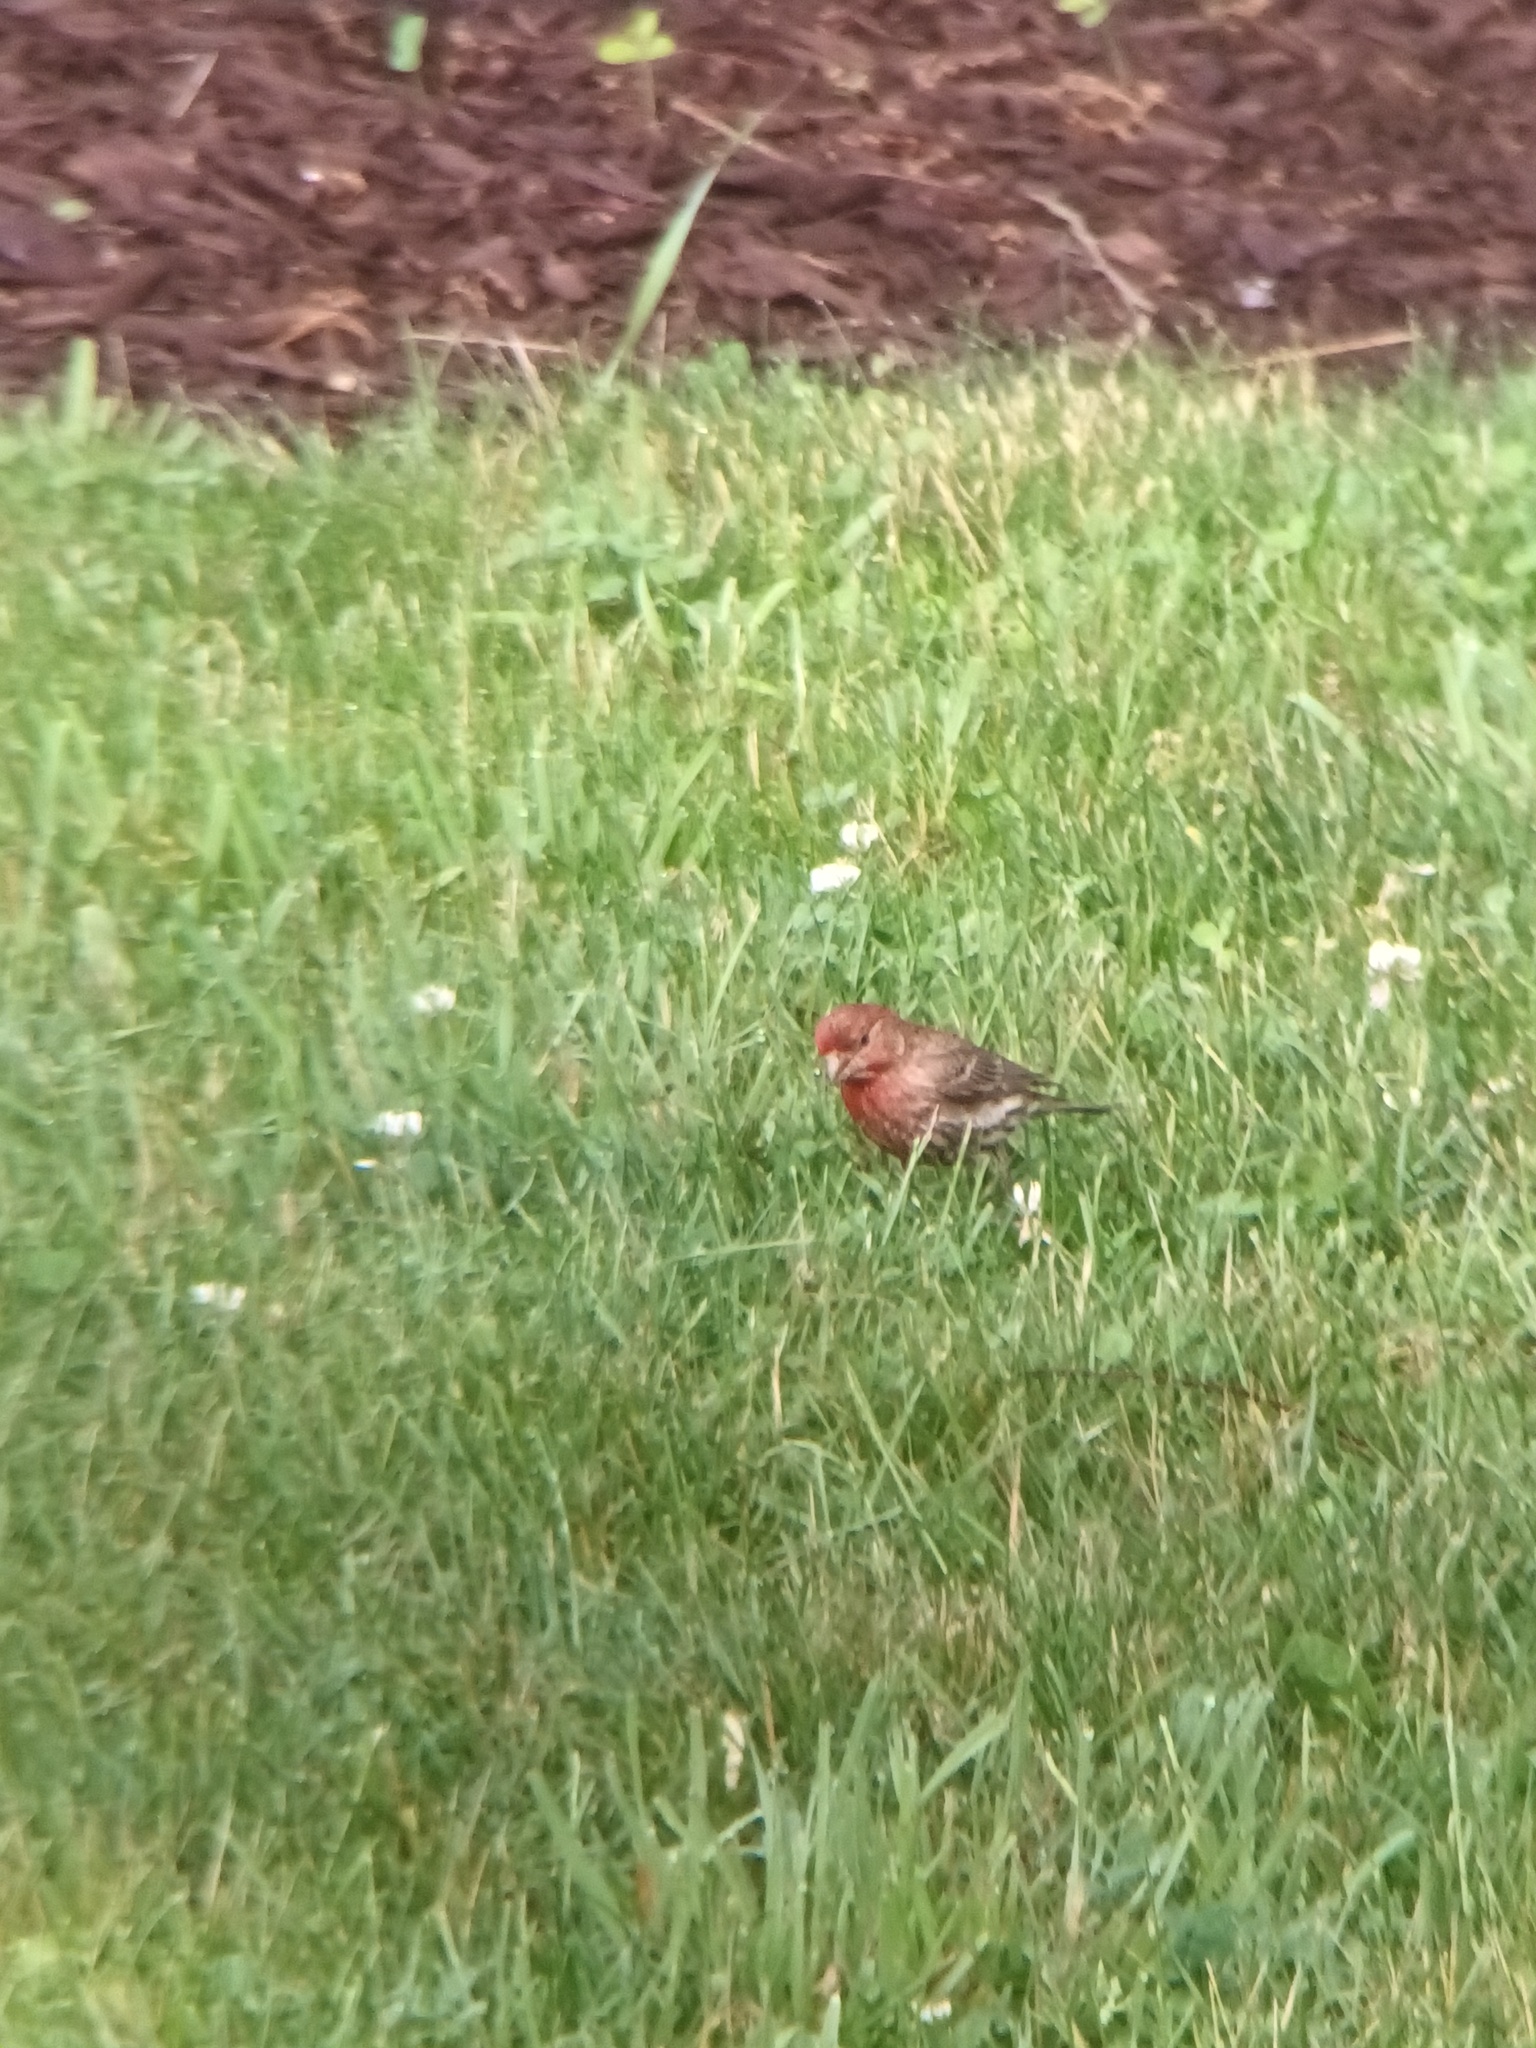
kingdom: Animalia
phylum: Chordata
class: Aves
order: Passeriformes
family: Fringillidae
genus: Haemorhous
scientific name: Haemorhous mexicanus
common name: House finch
